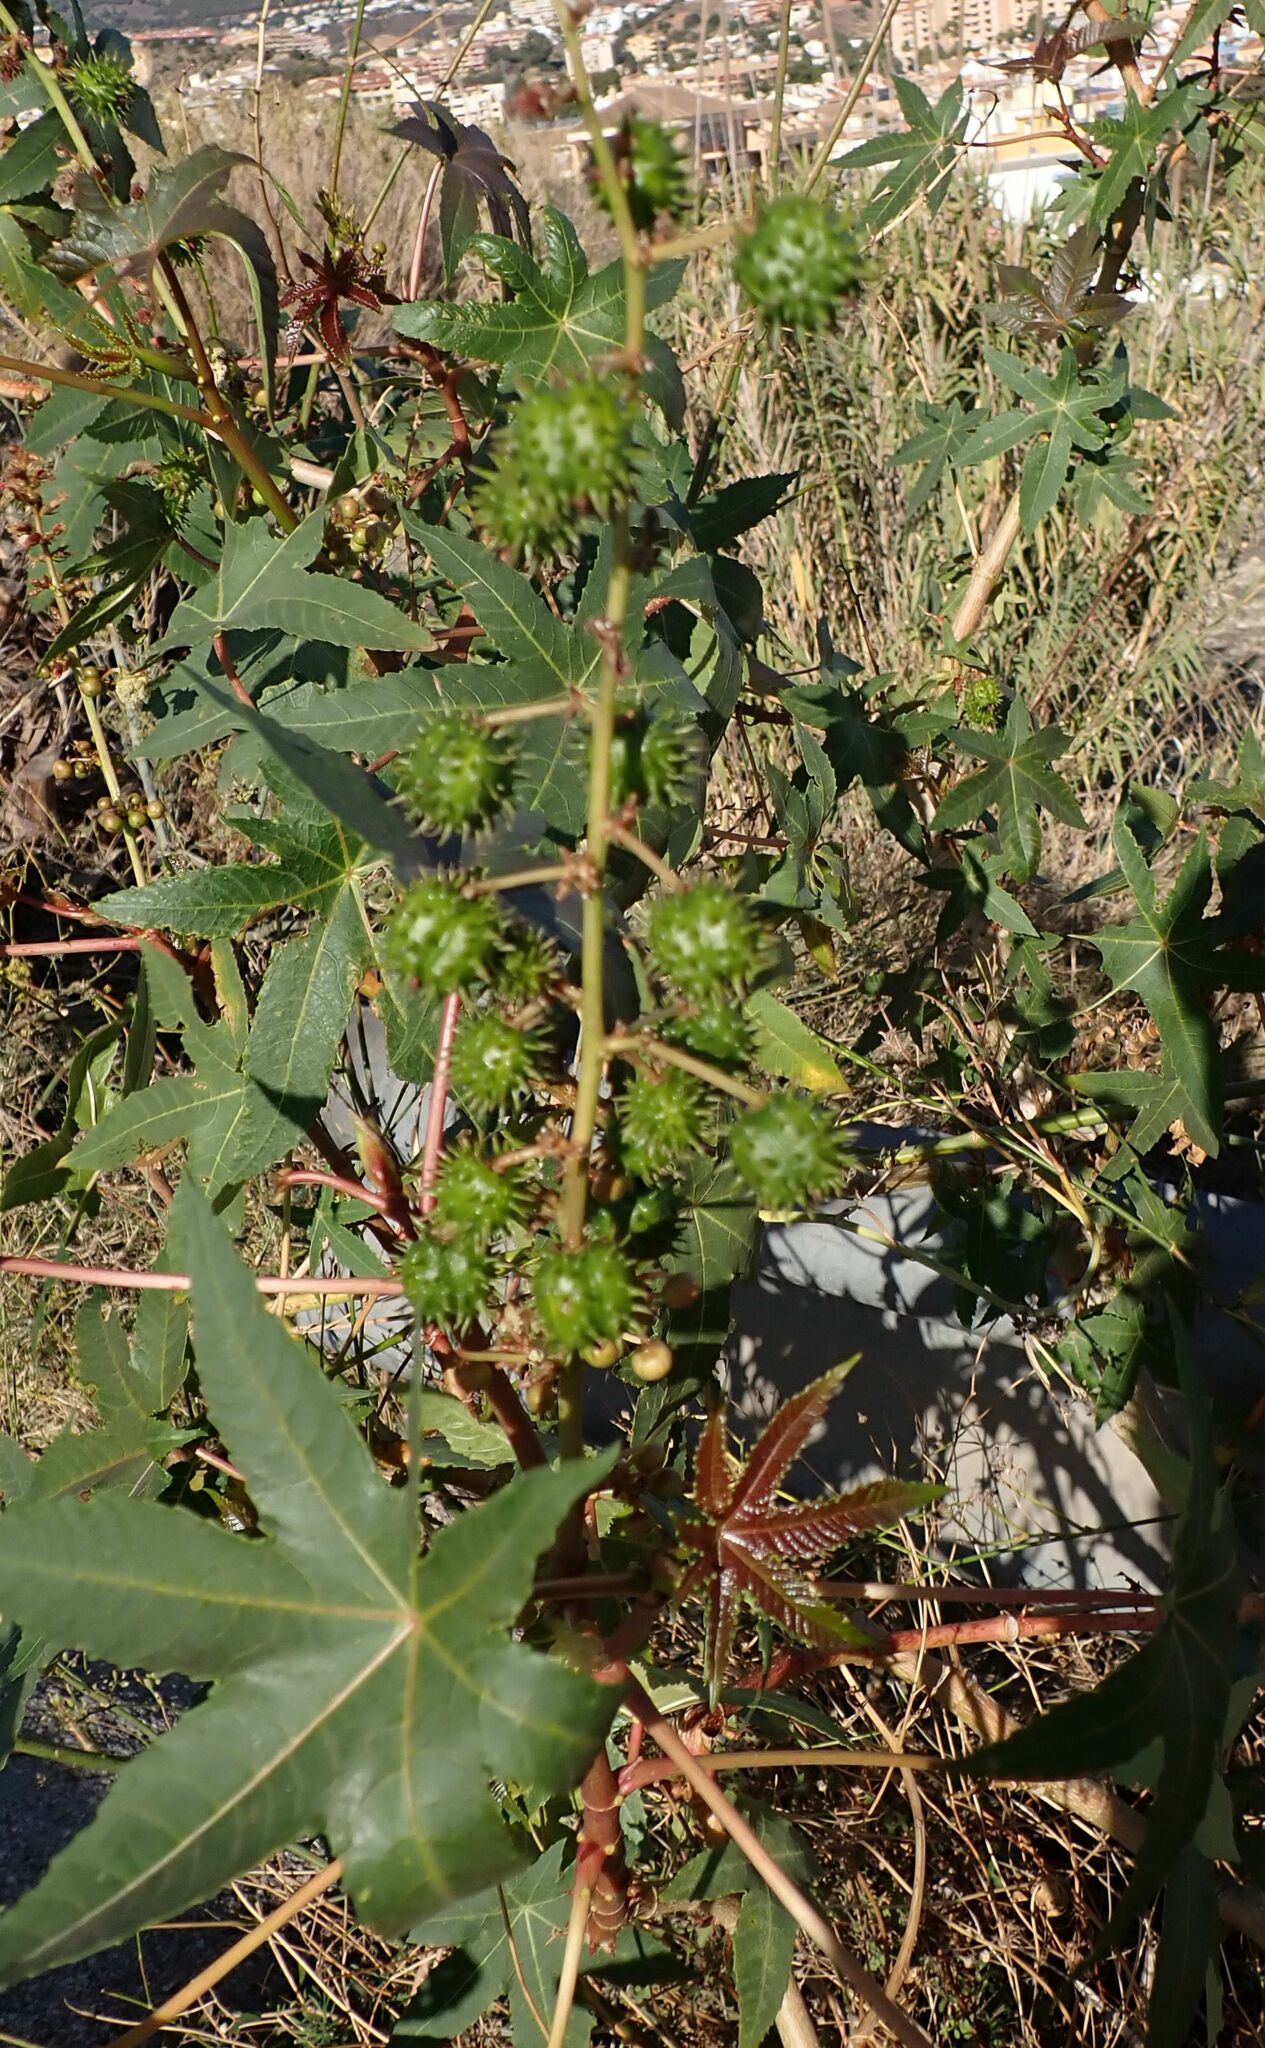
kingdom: Plantae
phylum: Tracheophyta
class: Magnoliopsida
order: Malpighiales
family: Euphorbiaceae
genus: Ricinus
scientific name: Ricinus communis
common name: Castor-oil-plant
